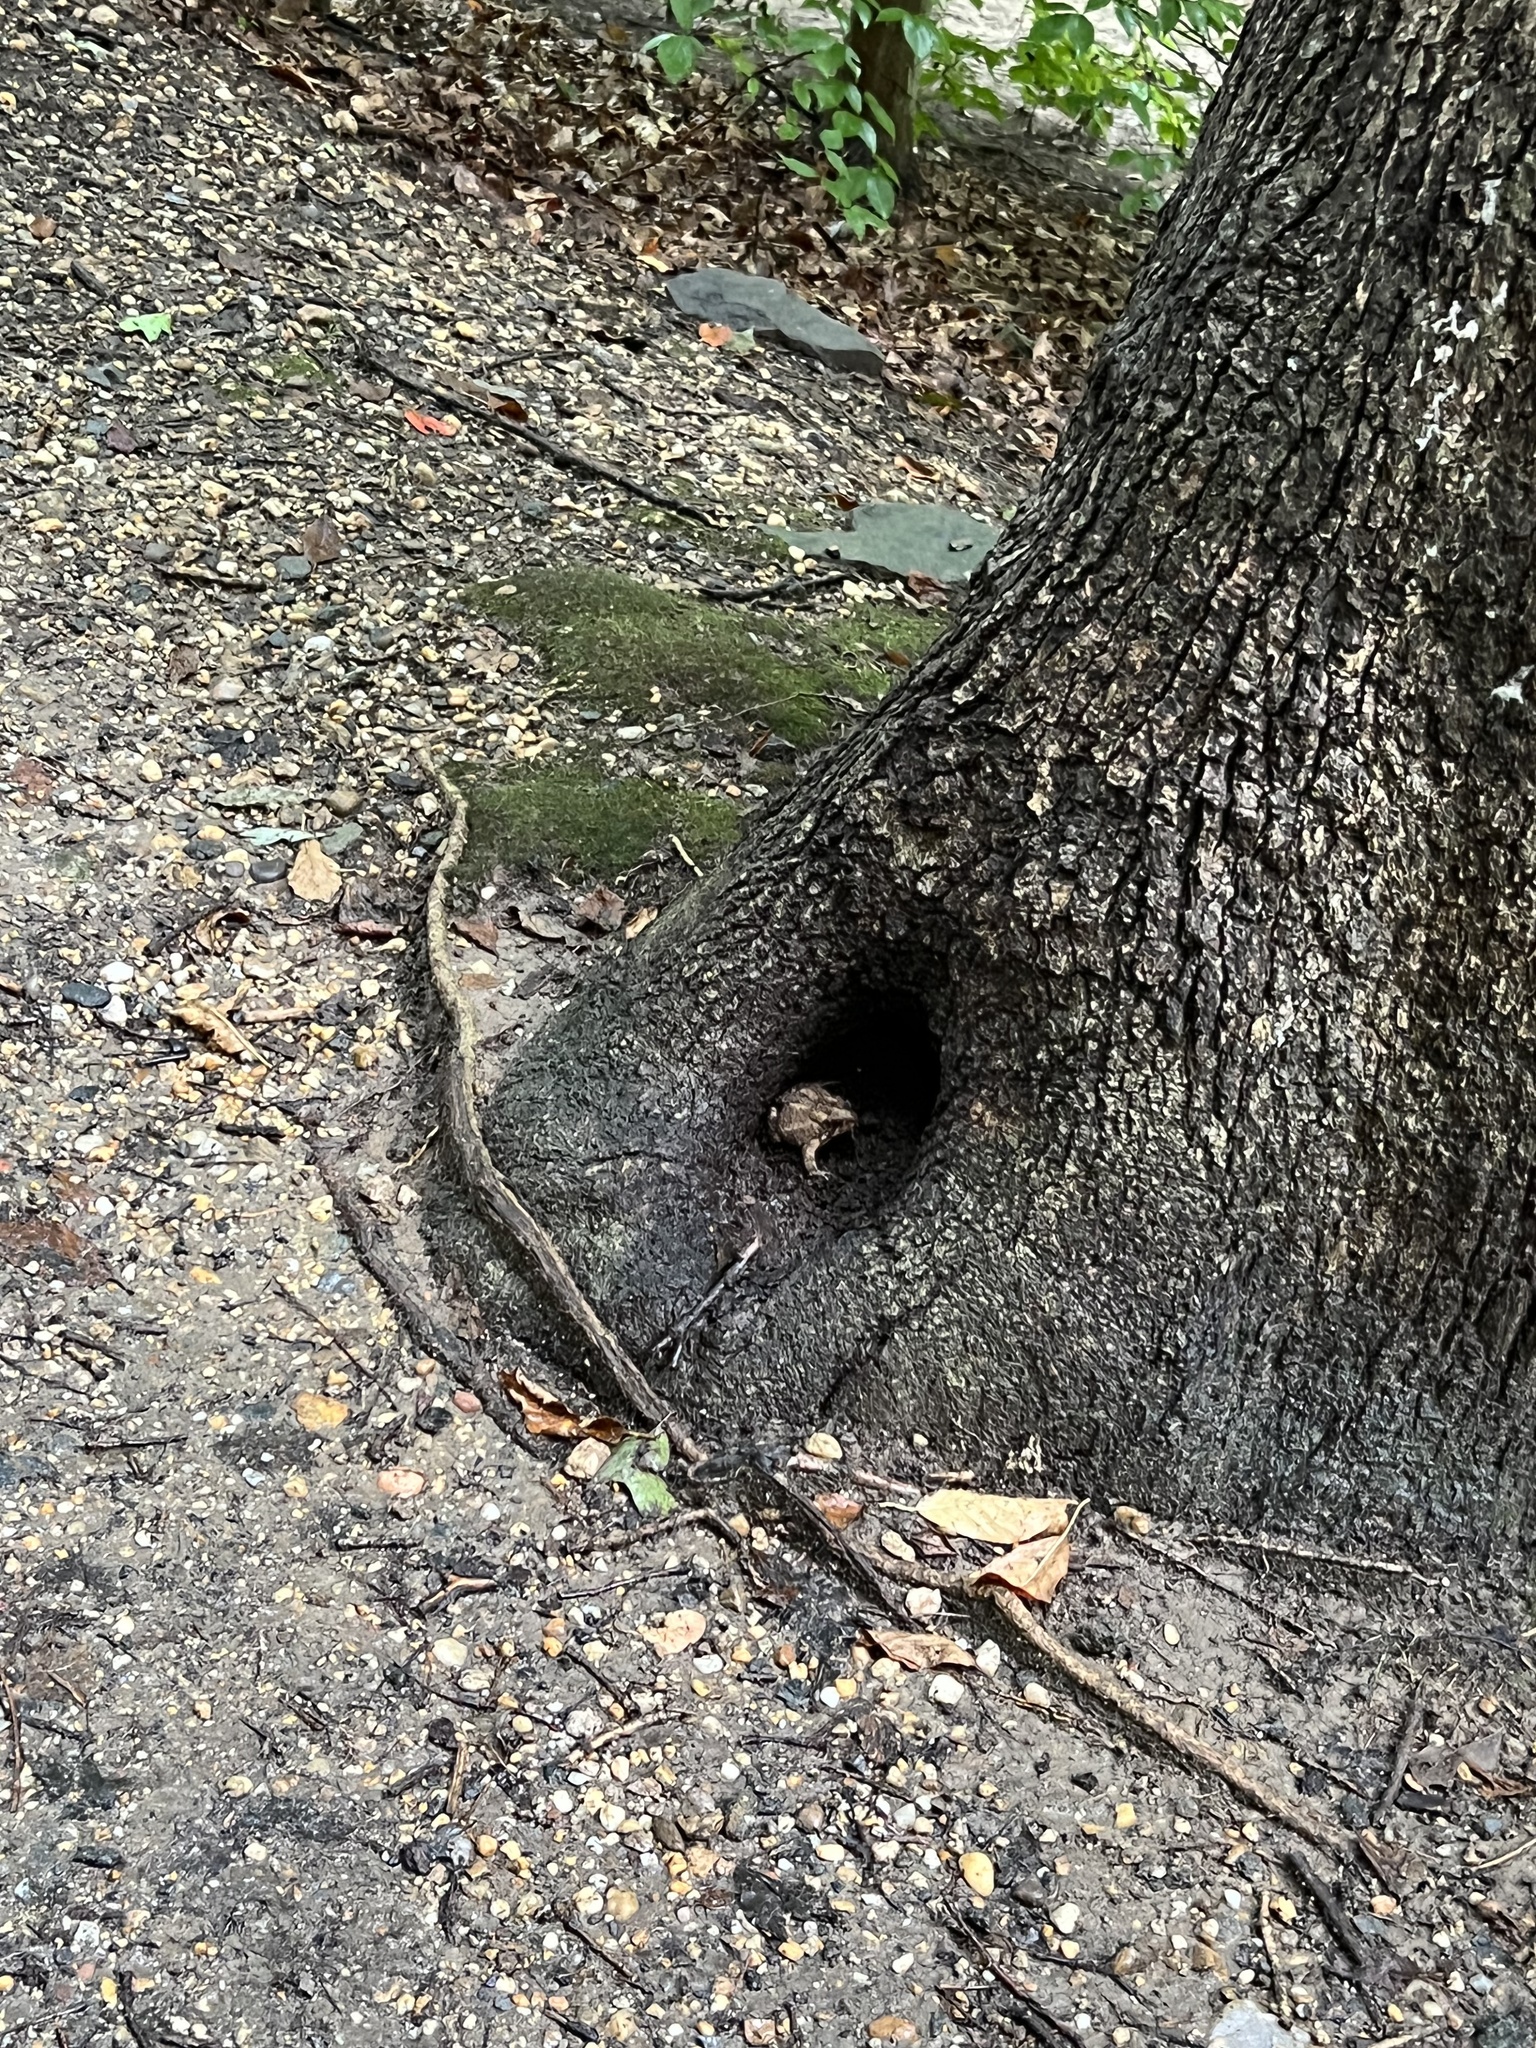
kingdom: Animalia
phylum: Chordata
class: Amphibia
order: Anura
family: Bufonidae
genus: Anaxyrus
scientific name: Anaxyrus americanus
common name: American toad
